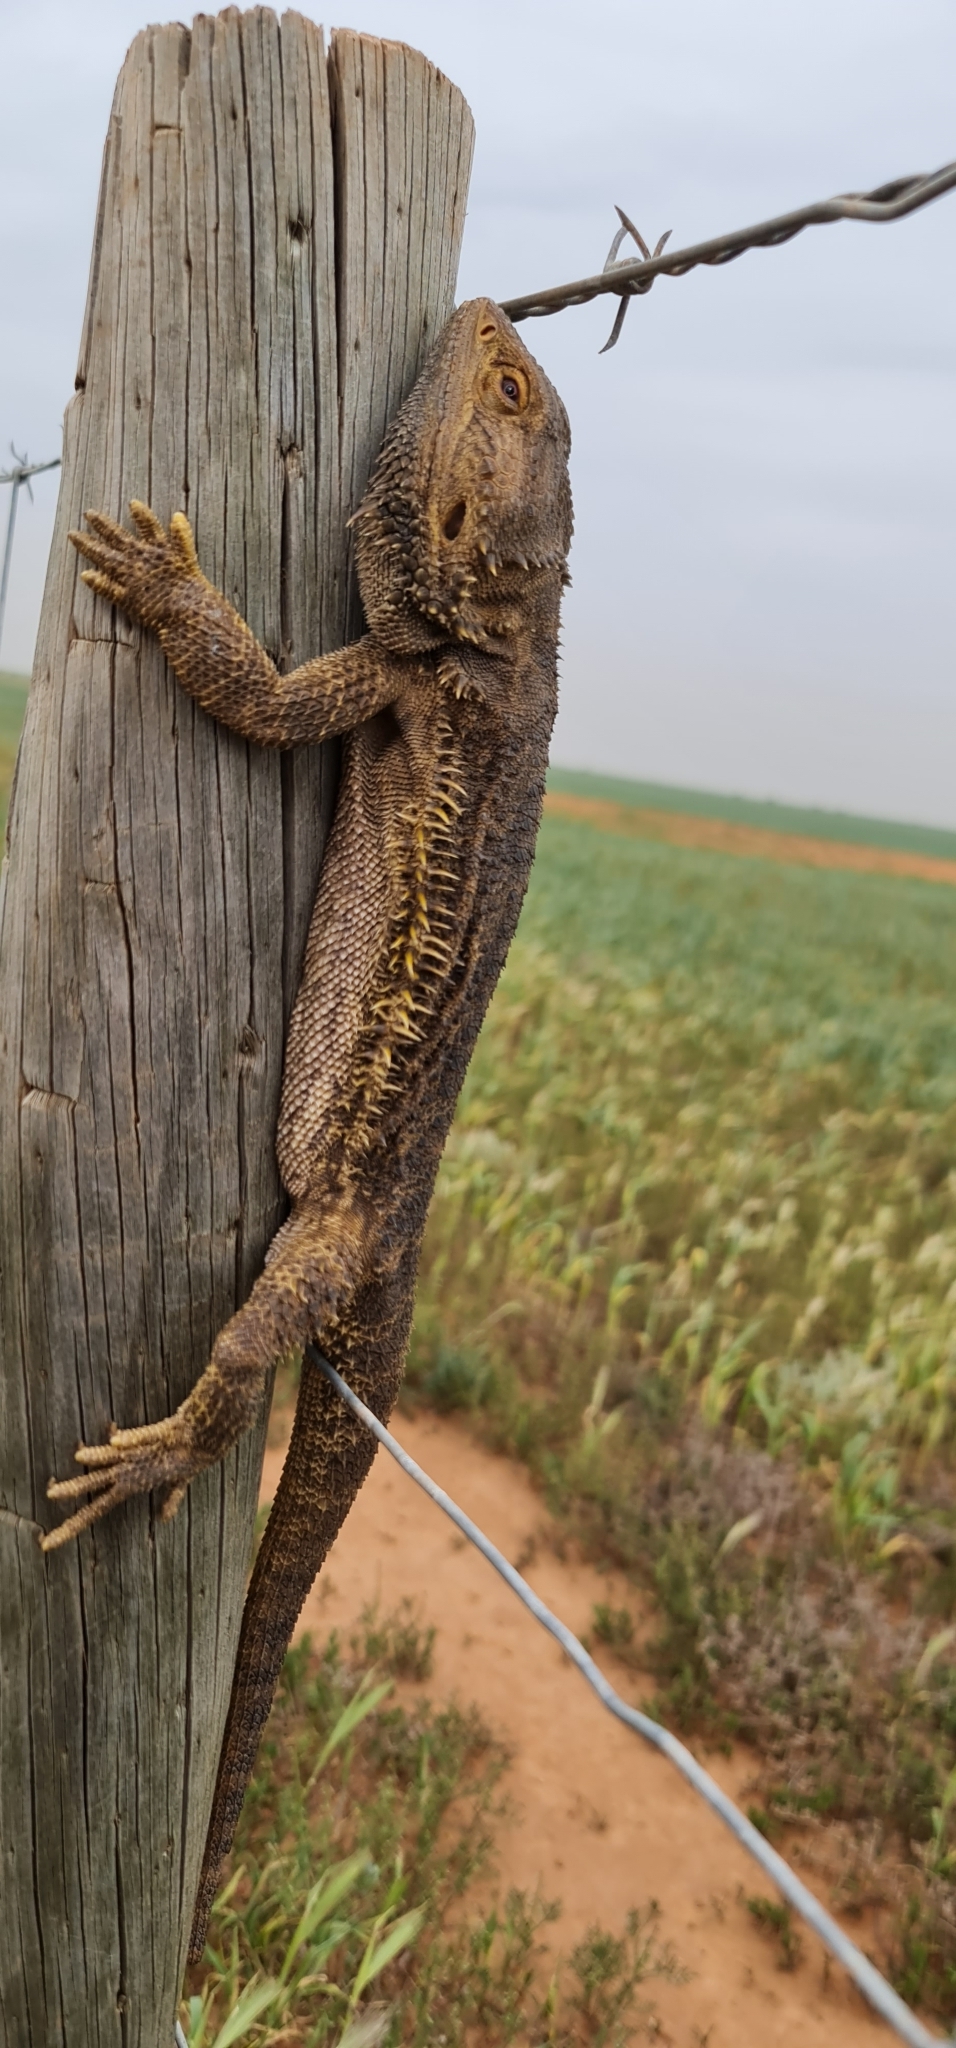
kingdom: Animalia
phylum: Chordata
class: Squamata
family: Agamidae
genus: Pogona
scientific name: Pogona vitticeps
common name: Central bearded dragon
